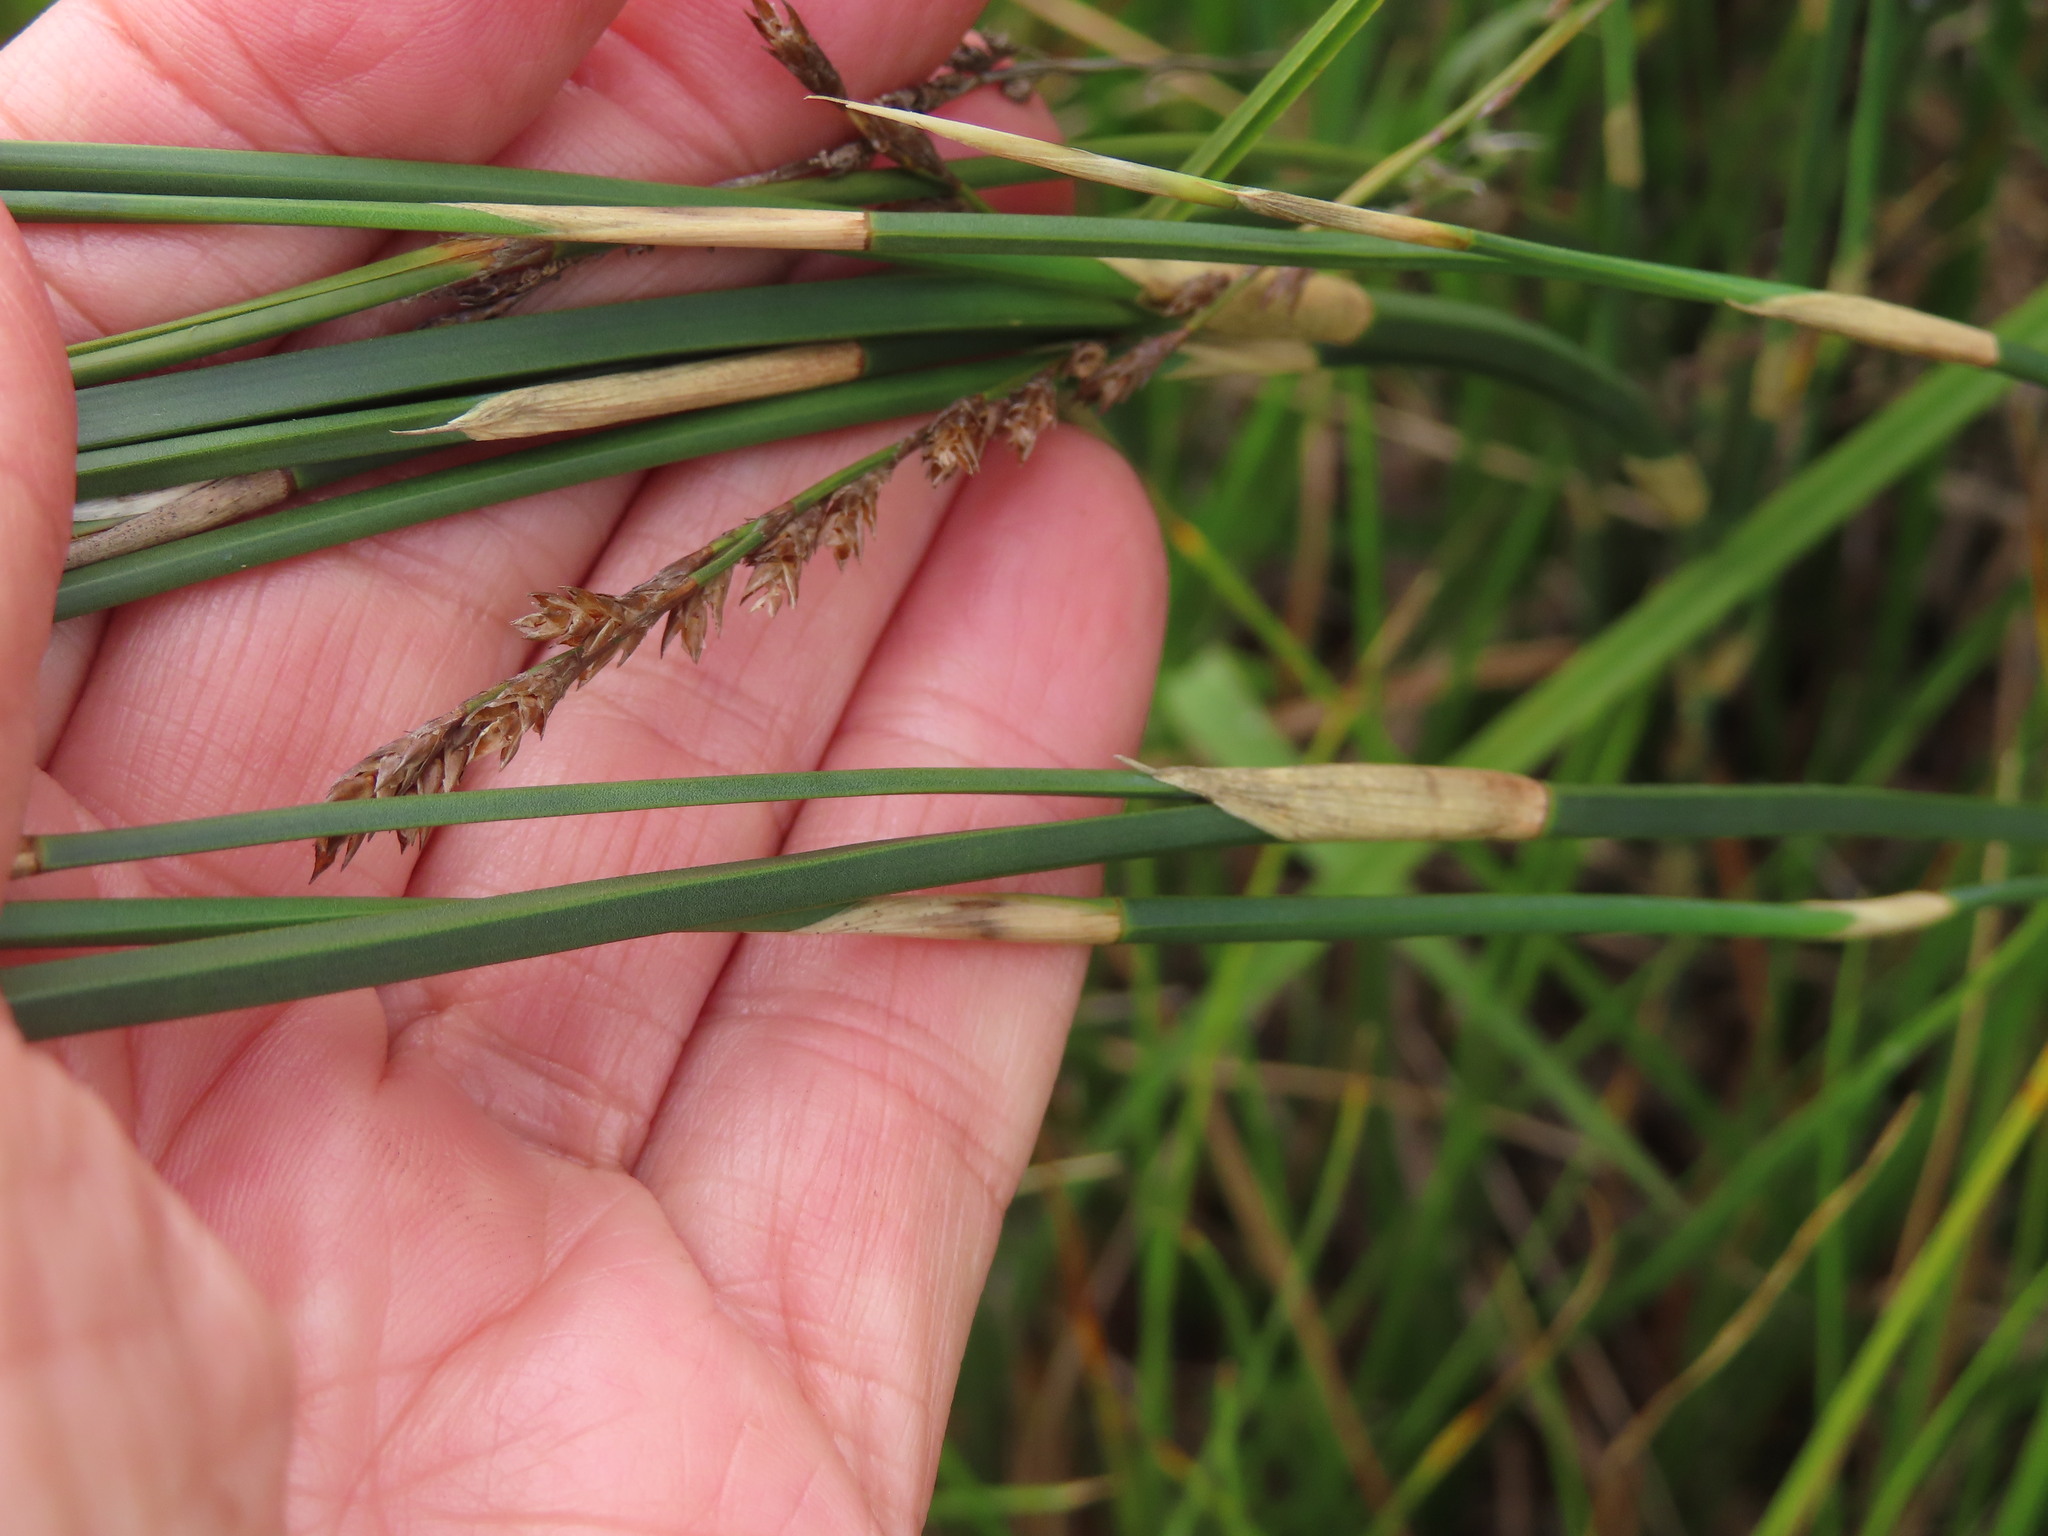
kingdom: Plantae
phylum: Tracheophyta
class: Liliopsida
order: Poales
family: Restionaceae
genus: Restio
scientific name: Restio tetragonus
